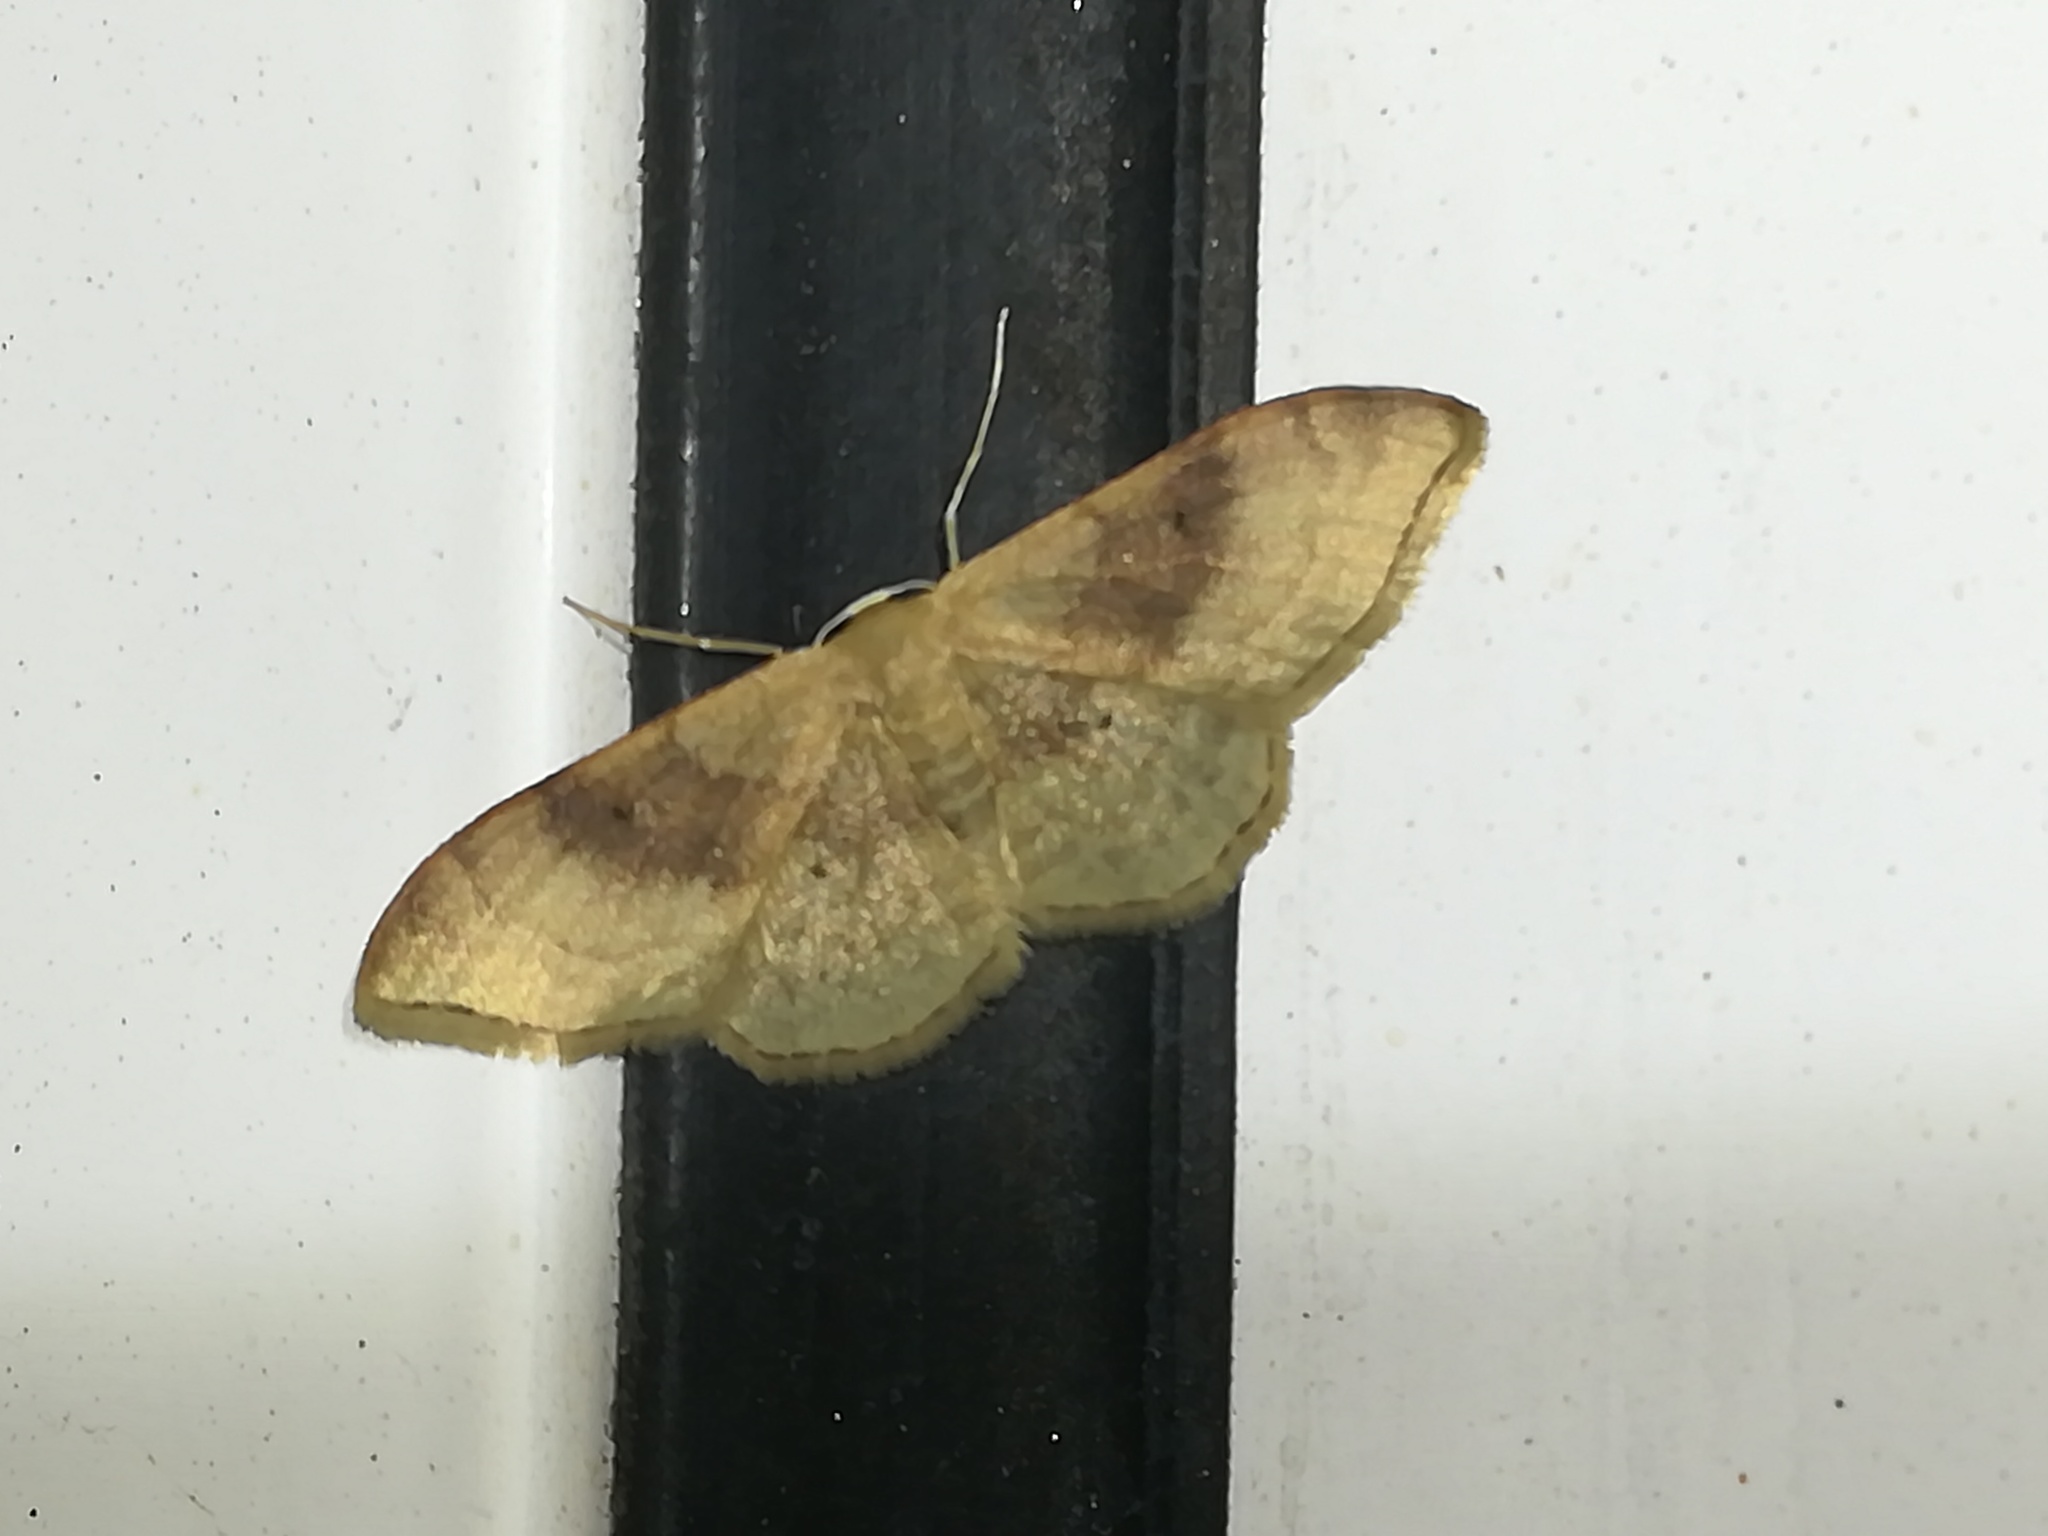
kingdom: Animalia
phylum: Arthropoda
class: Insecta
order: Lepidoptera
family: Geometridae
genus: Idaea
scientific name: Idaea degeneraria
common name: Portland ribbon wave
